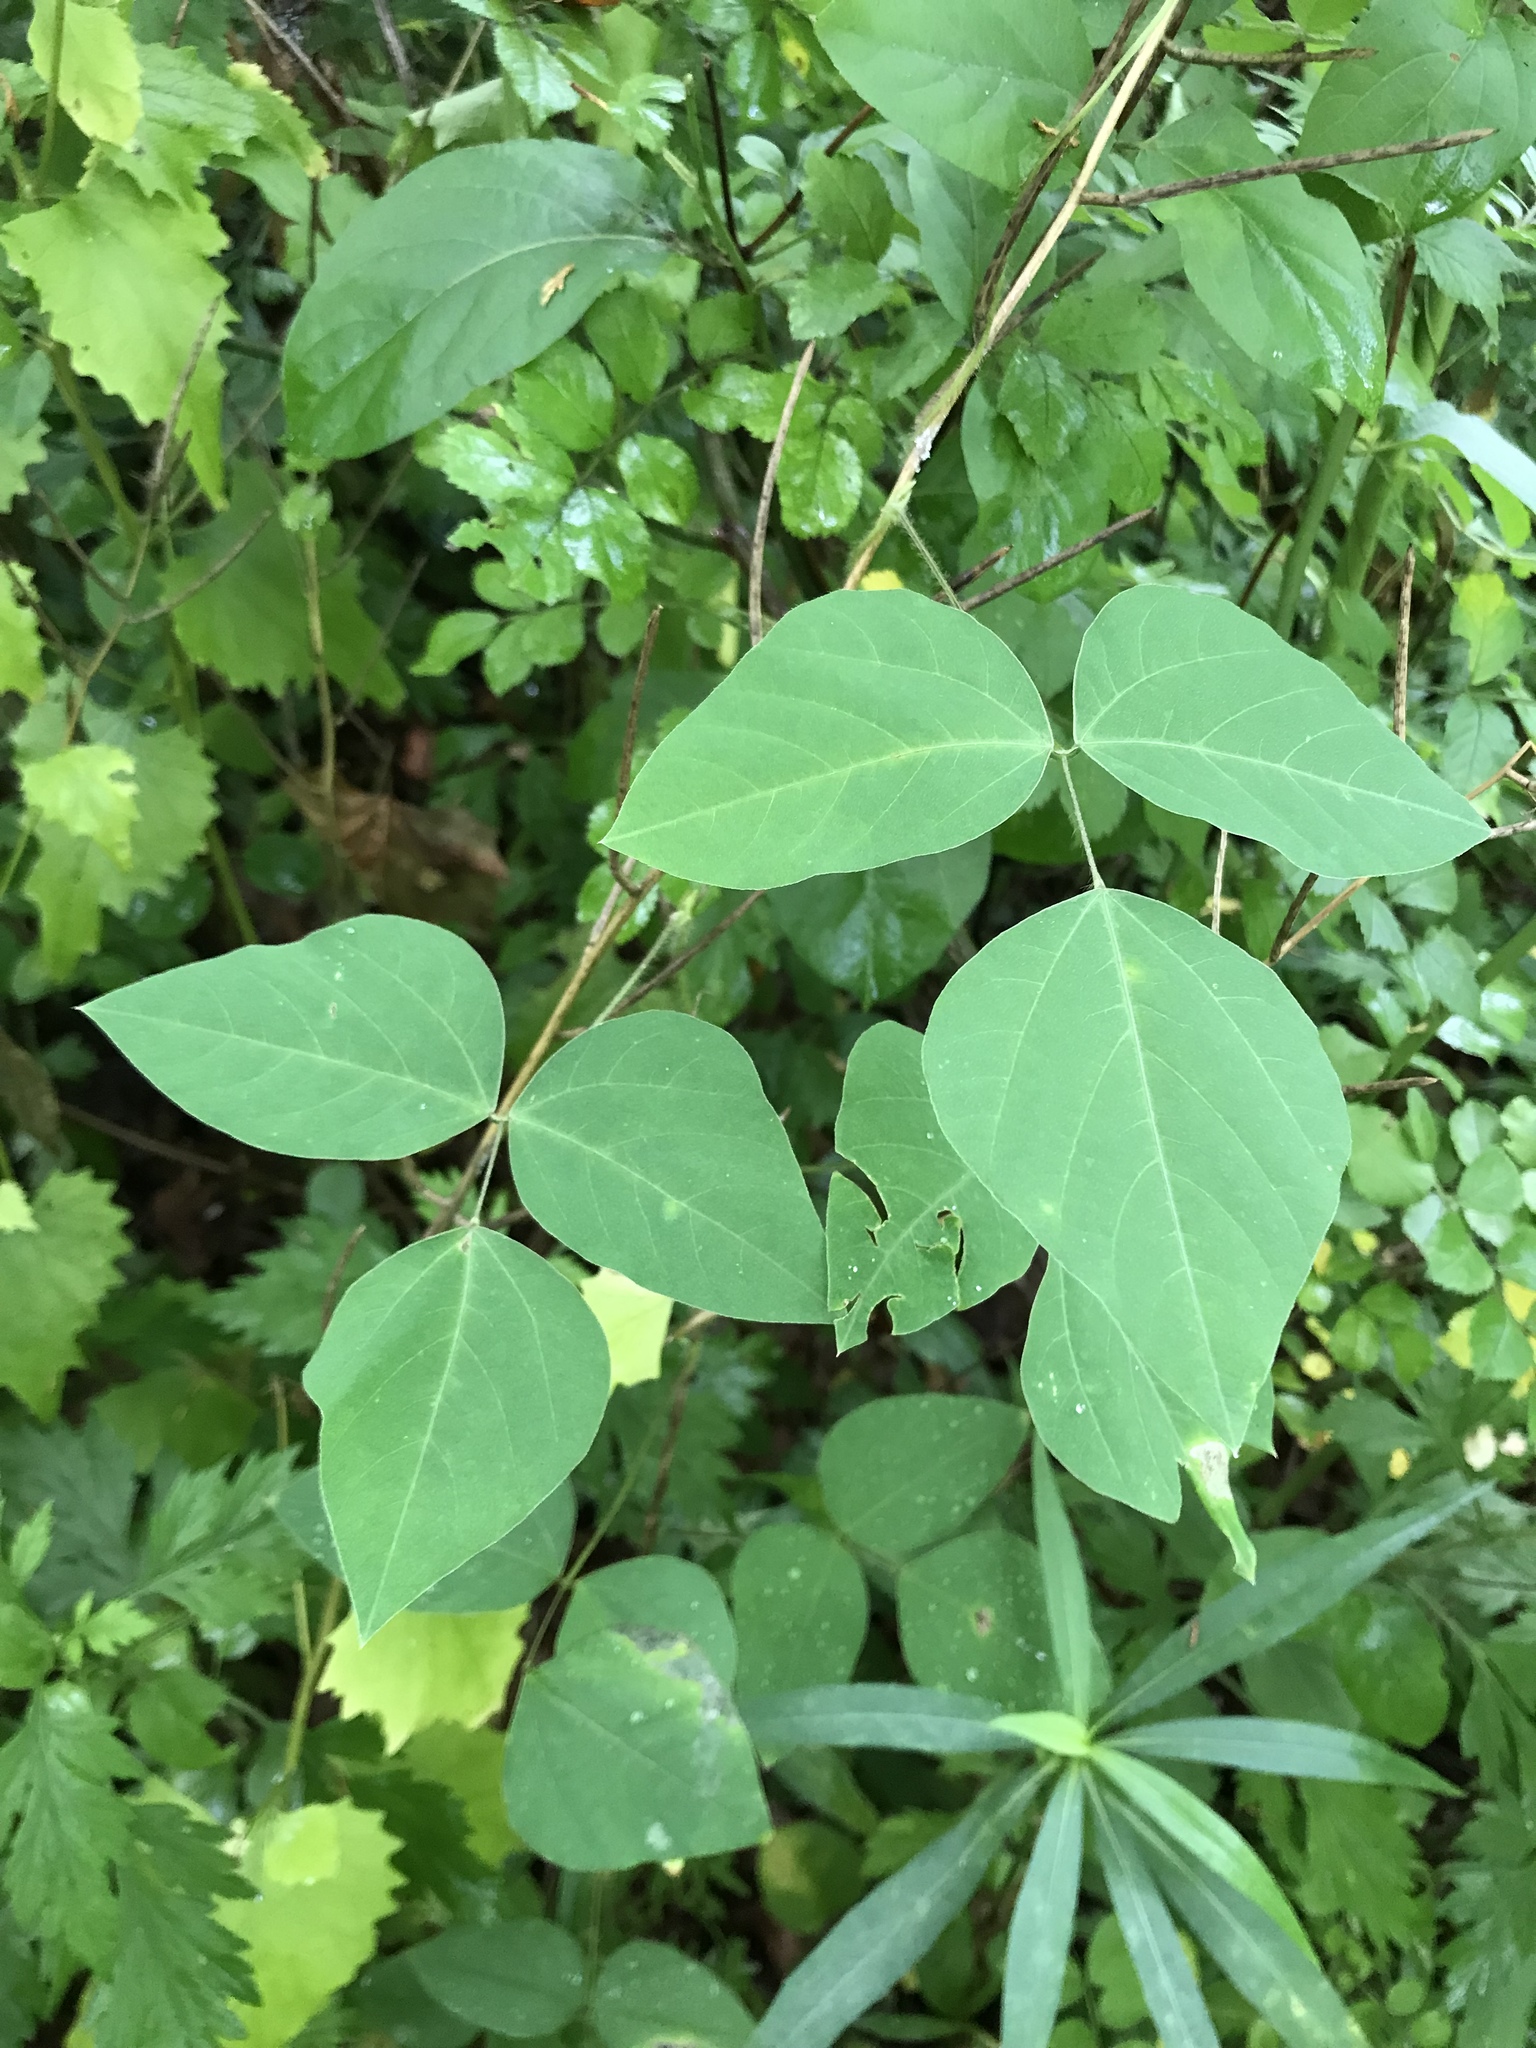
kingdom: Plantae
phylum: Tracheophyta
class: Magnoliopsida
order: Fabales
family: Fabaceae
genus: Amphicarpaea
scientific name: Amphicarpaea bracteata
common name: American hog peanut
